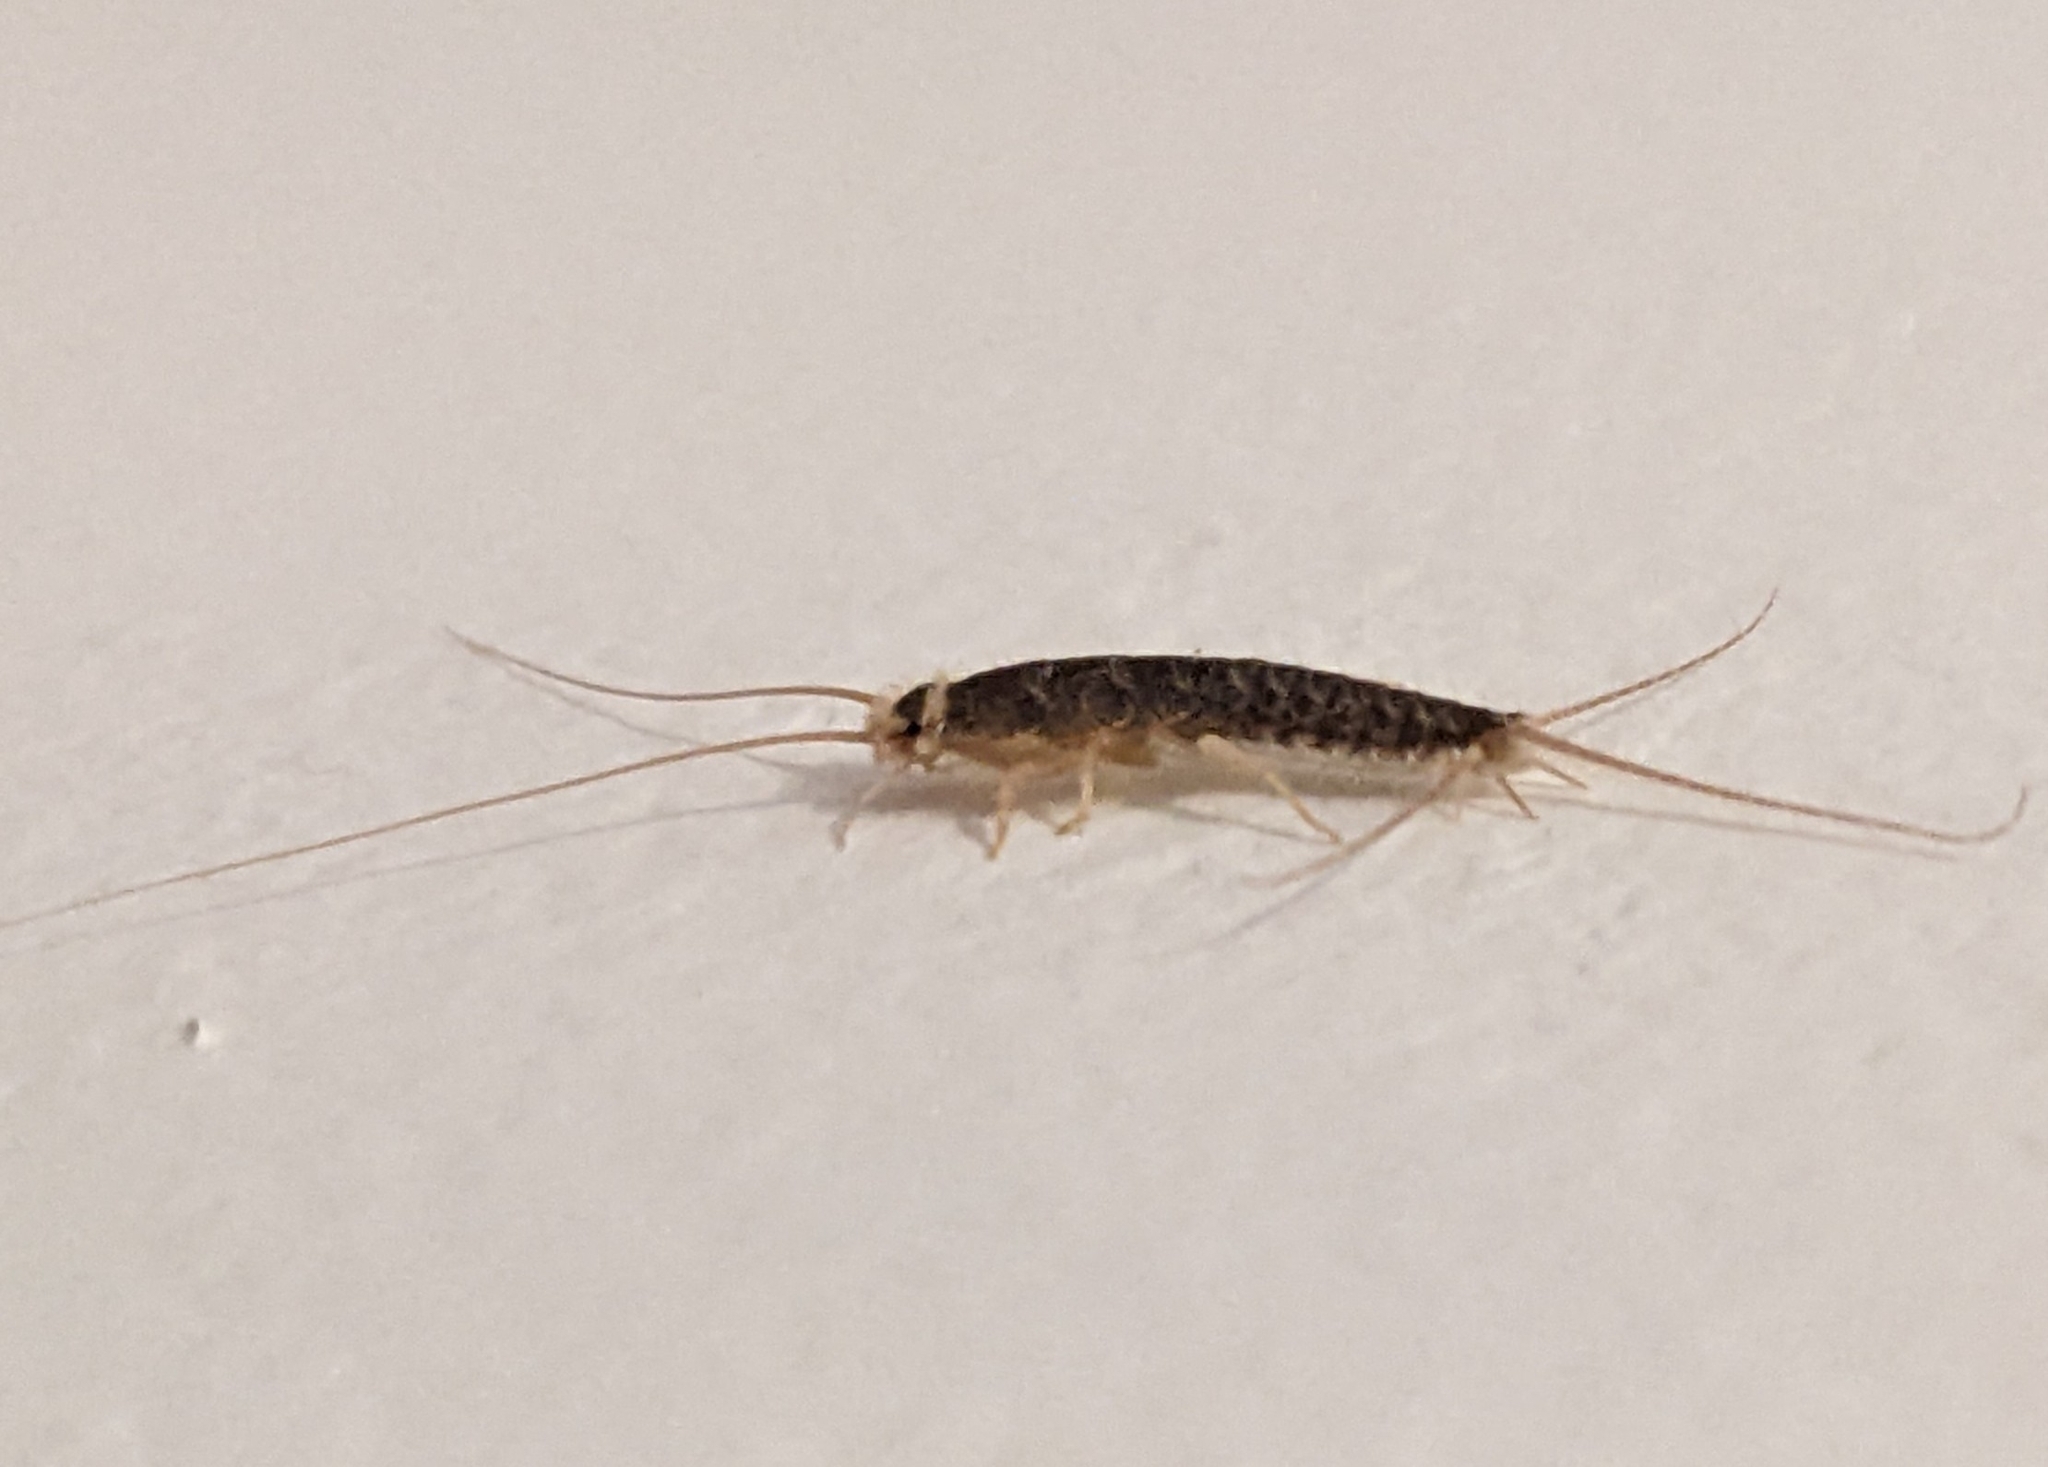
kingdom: Animalia
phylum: Arthropoda
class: Insecta
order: Zygentoma
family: Lepismatidae
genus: Ctenolepisma
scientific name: Ctenolepisma longicaudatum
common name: Silverfish
